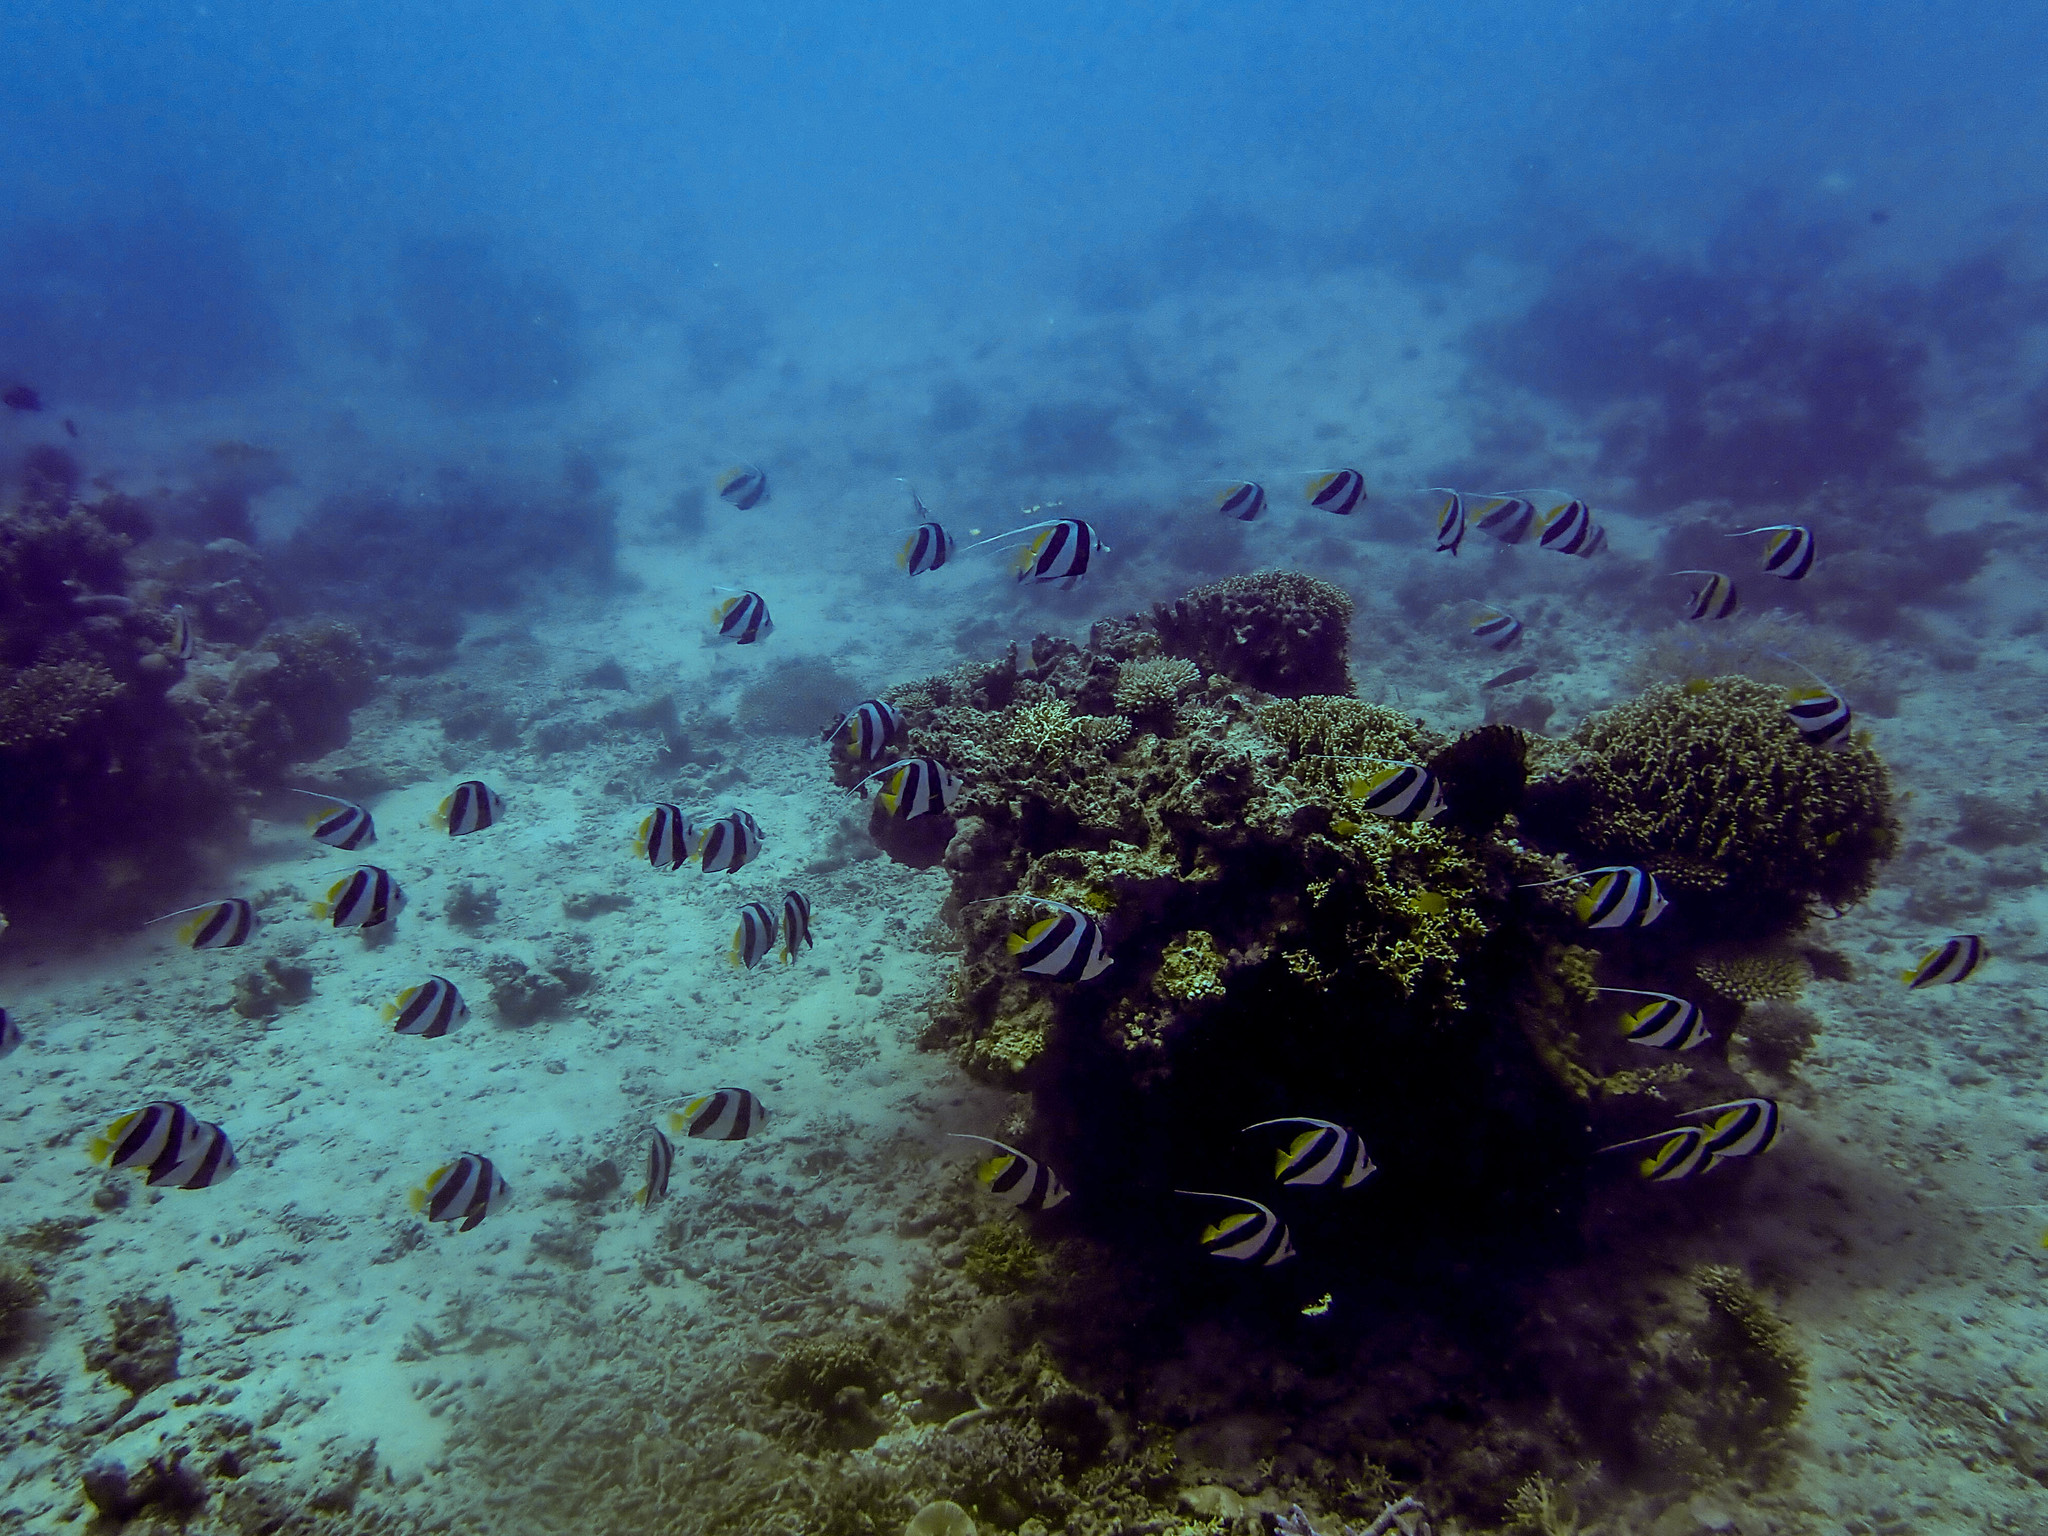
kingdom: Animalia
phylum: Chordata
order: Perciformes
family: Chaetodontidae
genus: Heniochus
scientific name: Heniochus diphreutes
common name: Pennantfish
